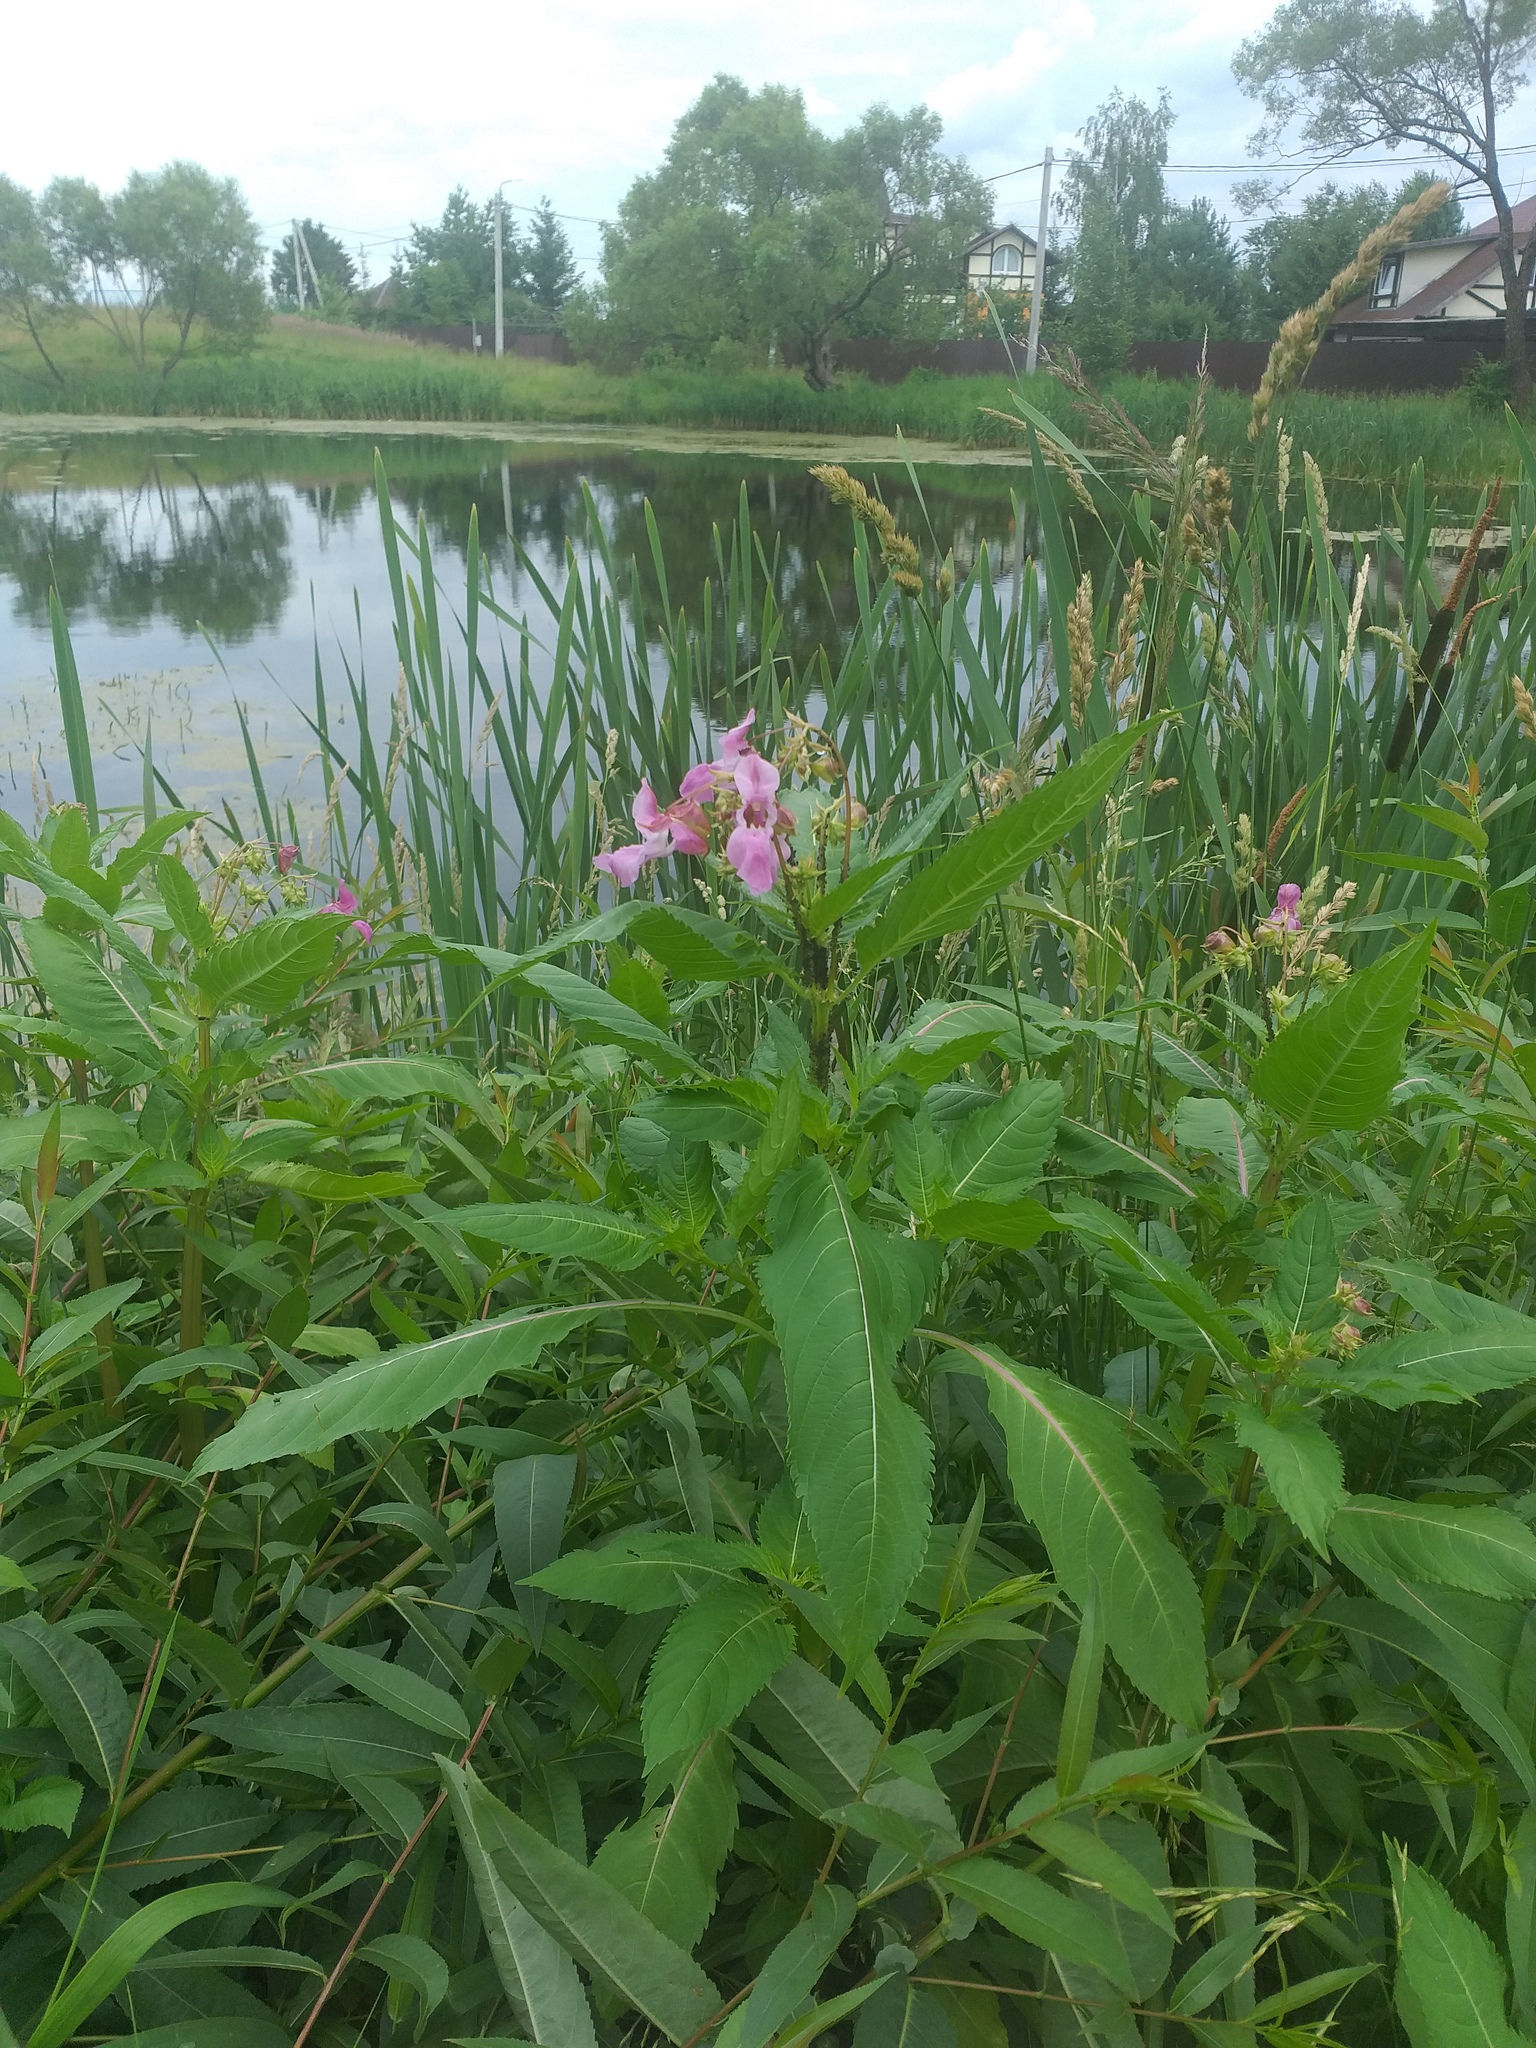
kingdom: Plantae
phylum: Tracheophyta
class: Magnoliopsida
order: Ericales
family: Balsaminaceae
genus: Impatiens
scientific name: Impatiens glandulifera
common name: Himalayan balsam
